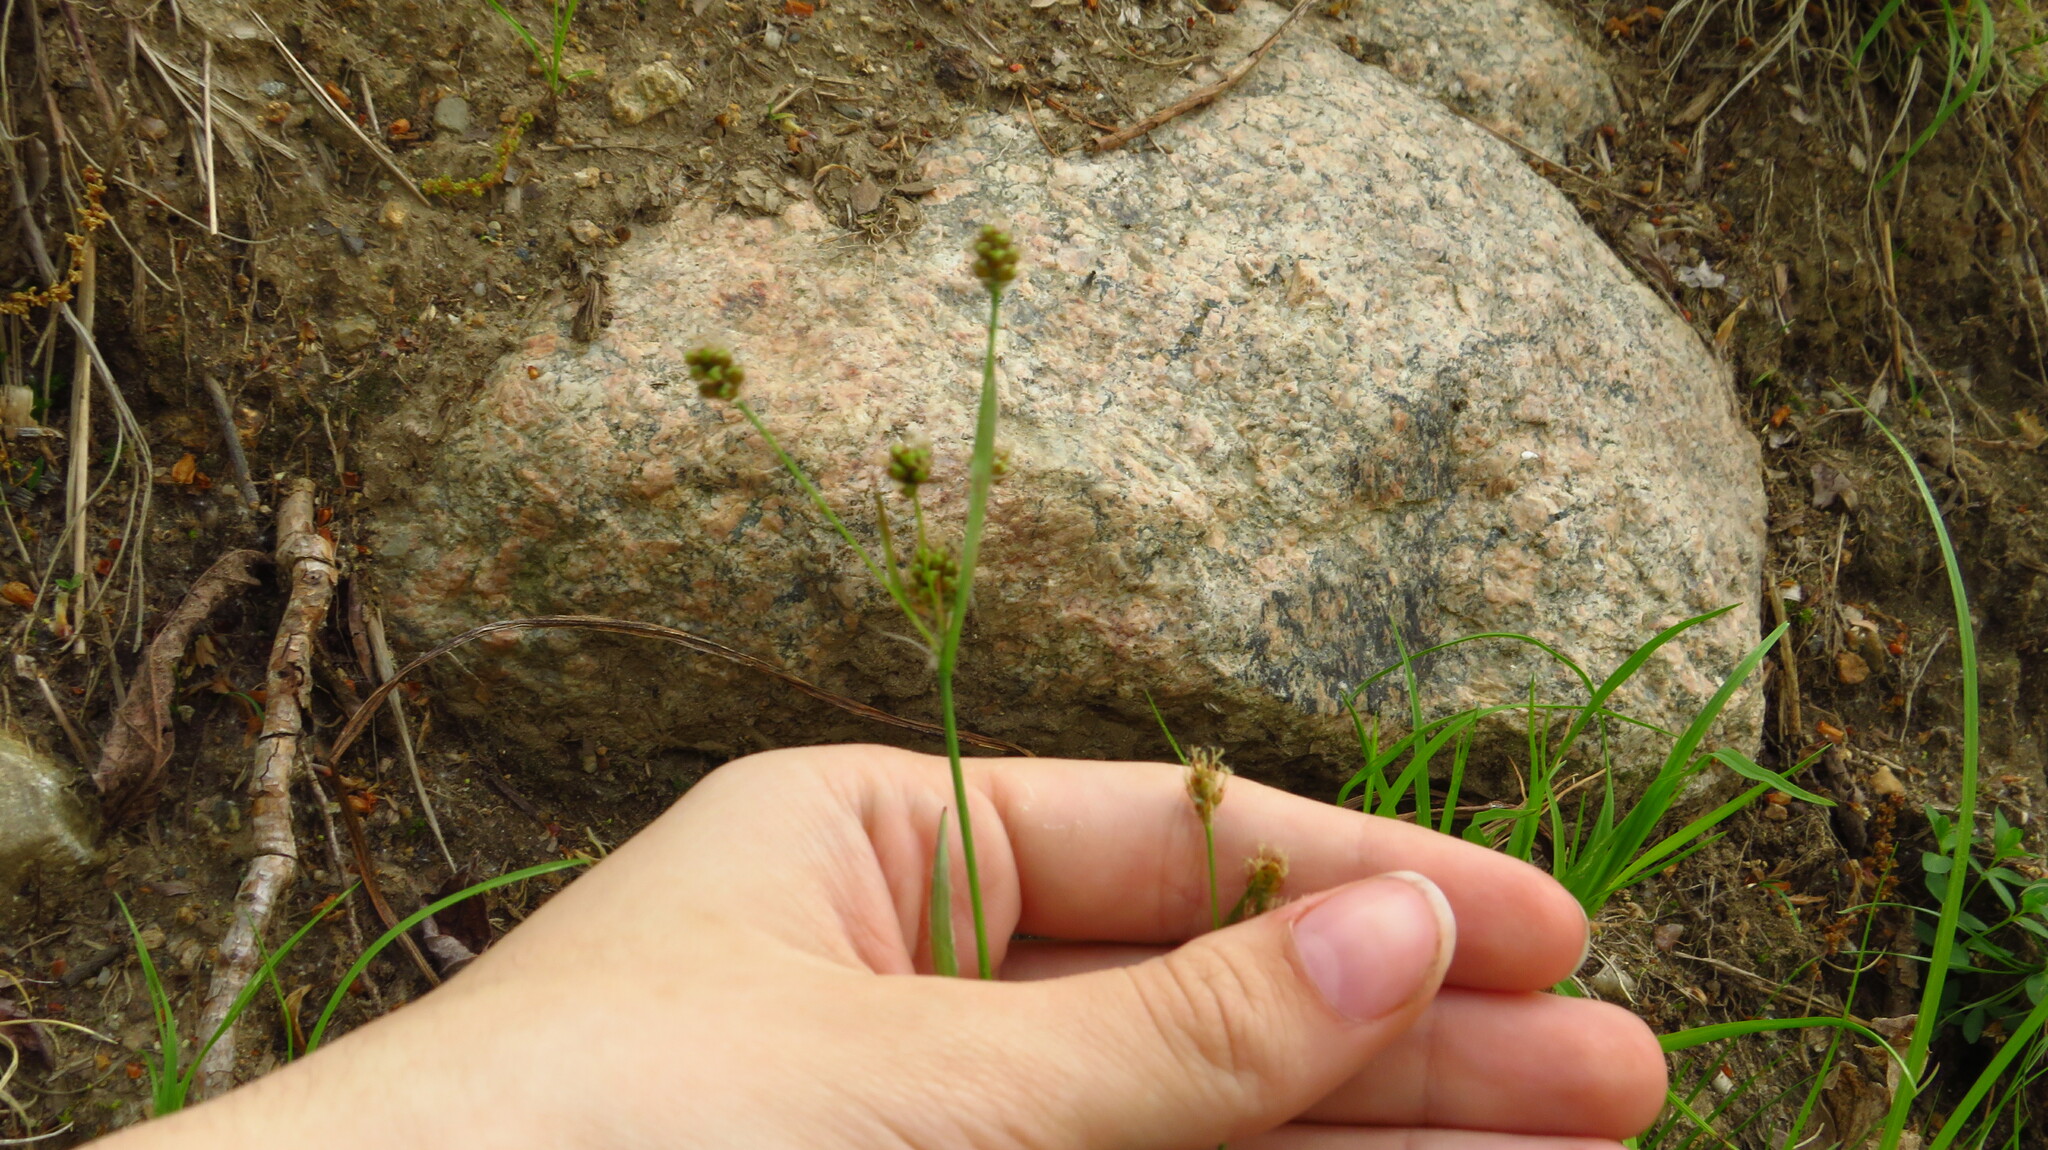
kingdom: Plantae
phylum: Tracheophyta
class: Liliopsida
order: Poales
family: Juncaceae
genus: Luzula
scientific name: Luzula multiflora
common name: Heath wood-rush
